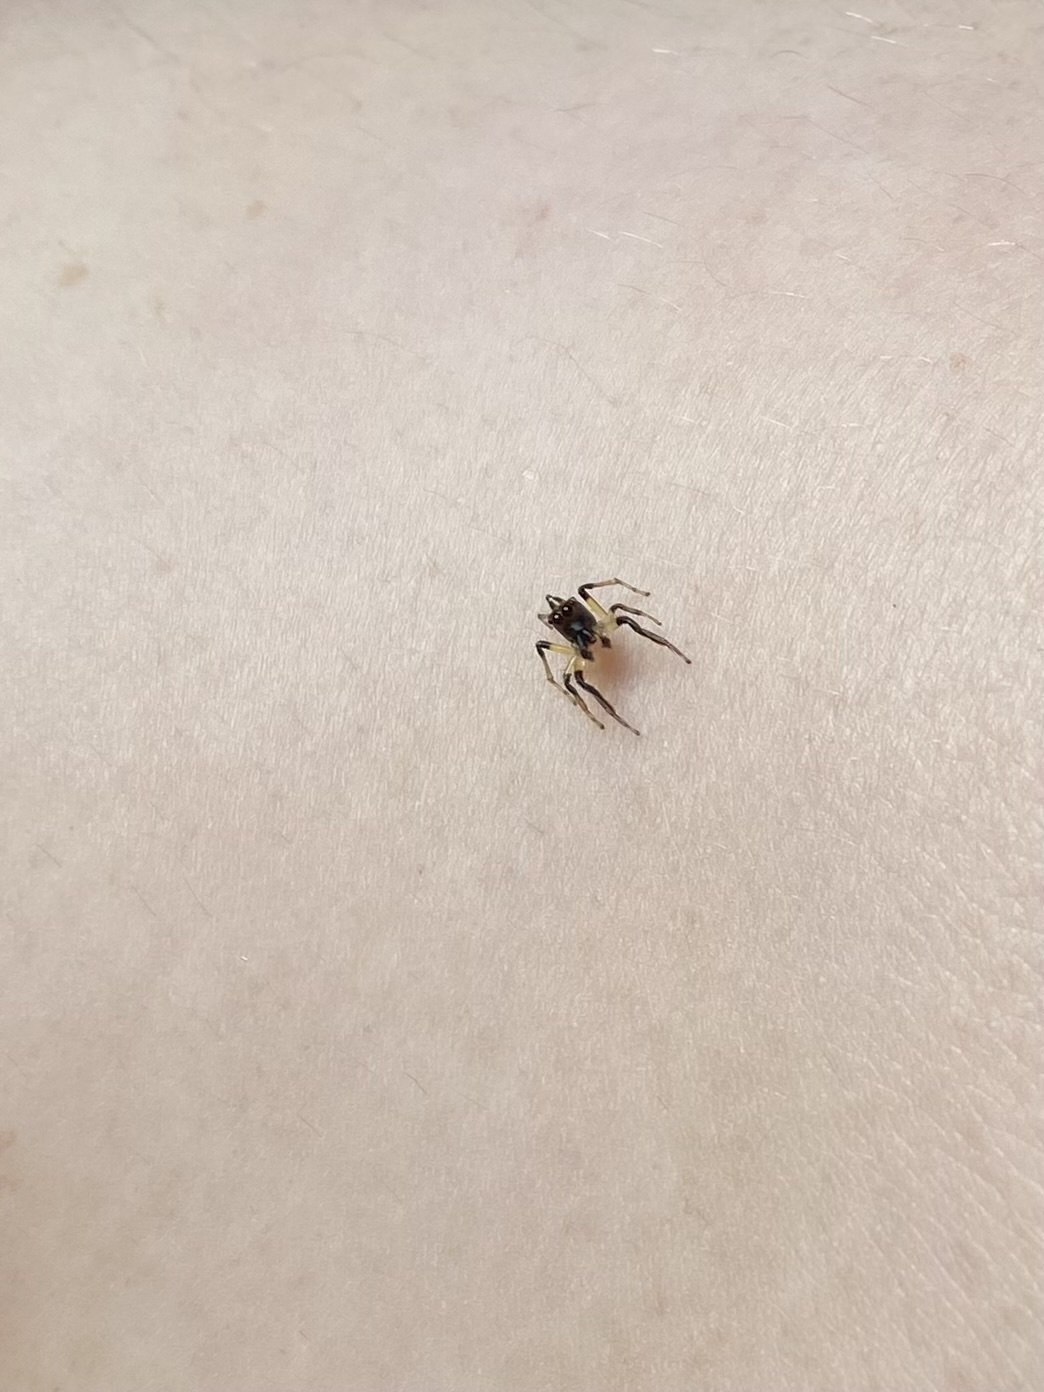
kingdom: Animalia
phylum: Arthropoda
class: Arachnida
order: Araneae
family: Salticidae
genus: Colonus
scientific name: Colonus sylvanus
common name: Jumping spiders
